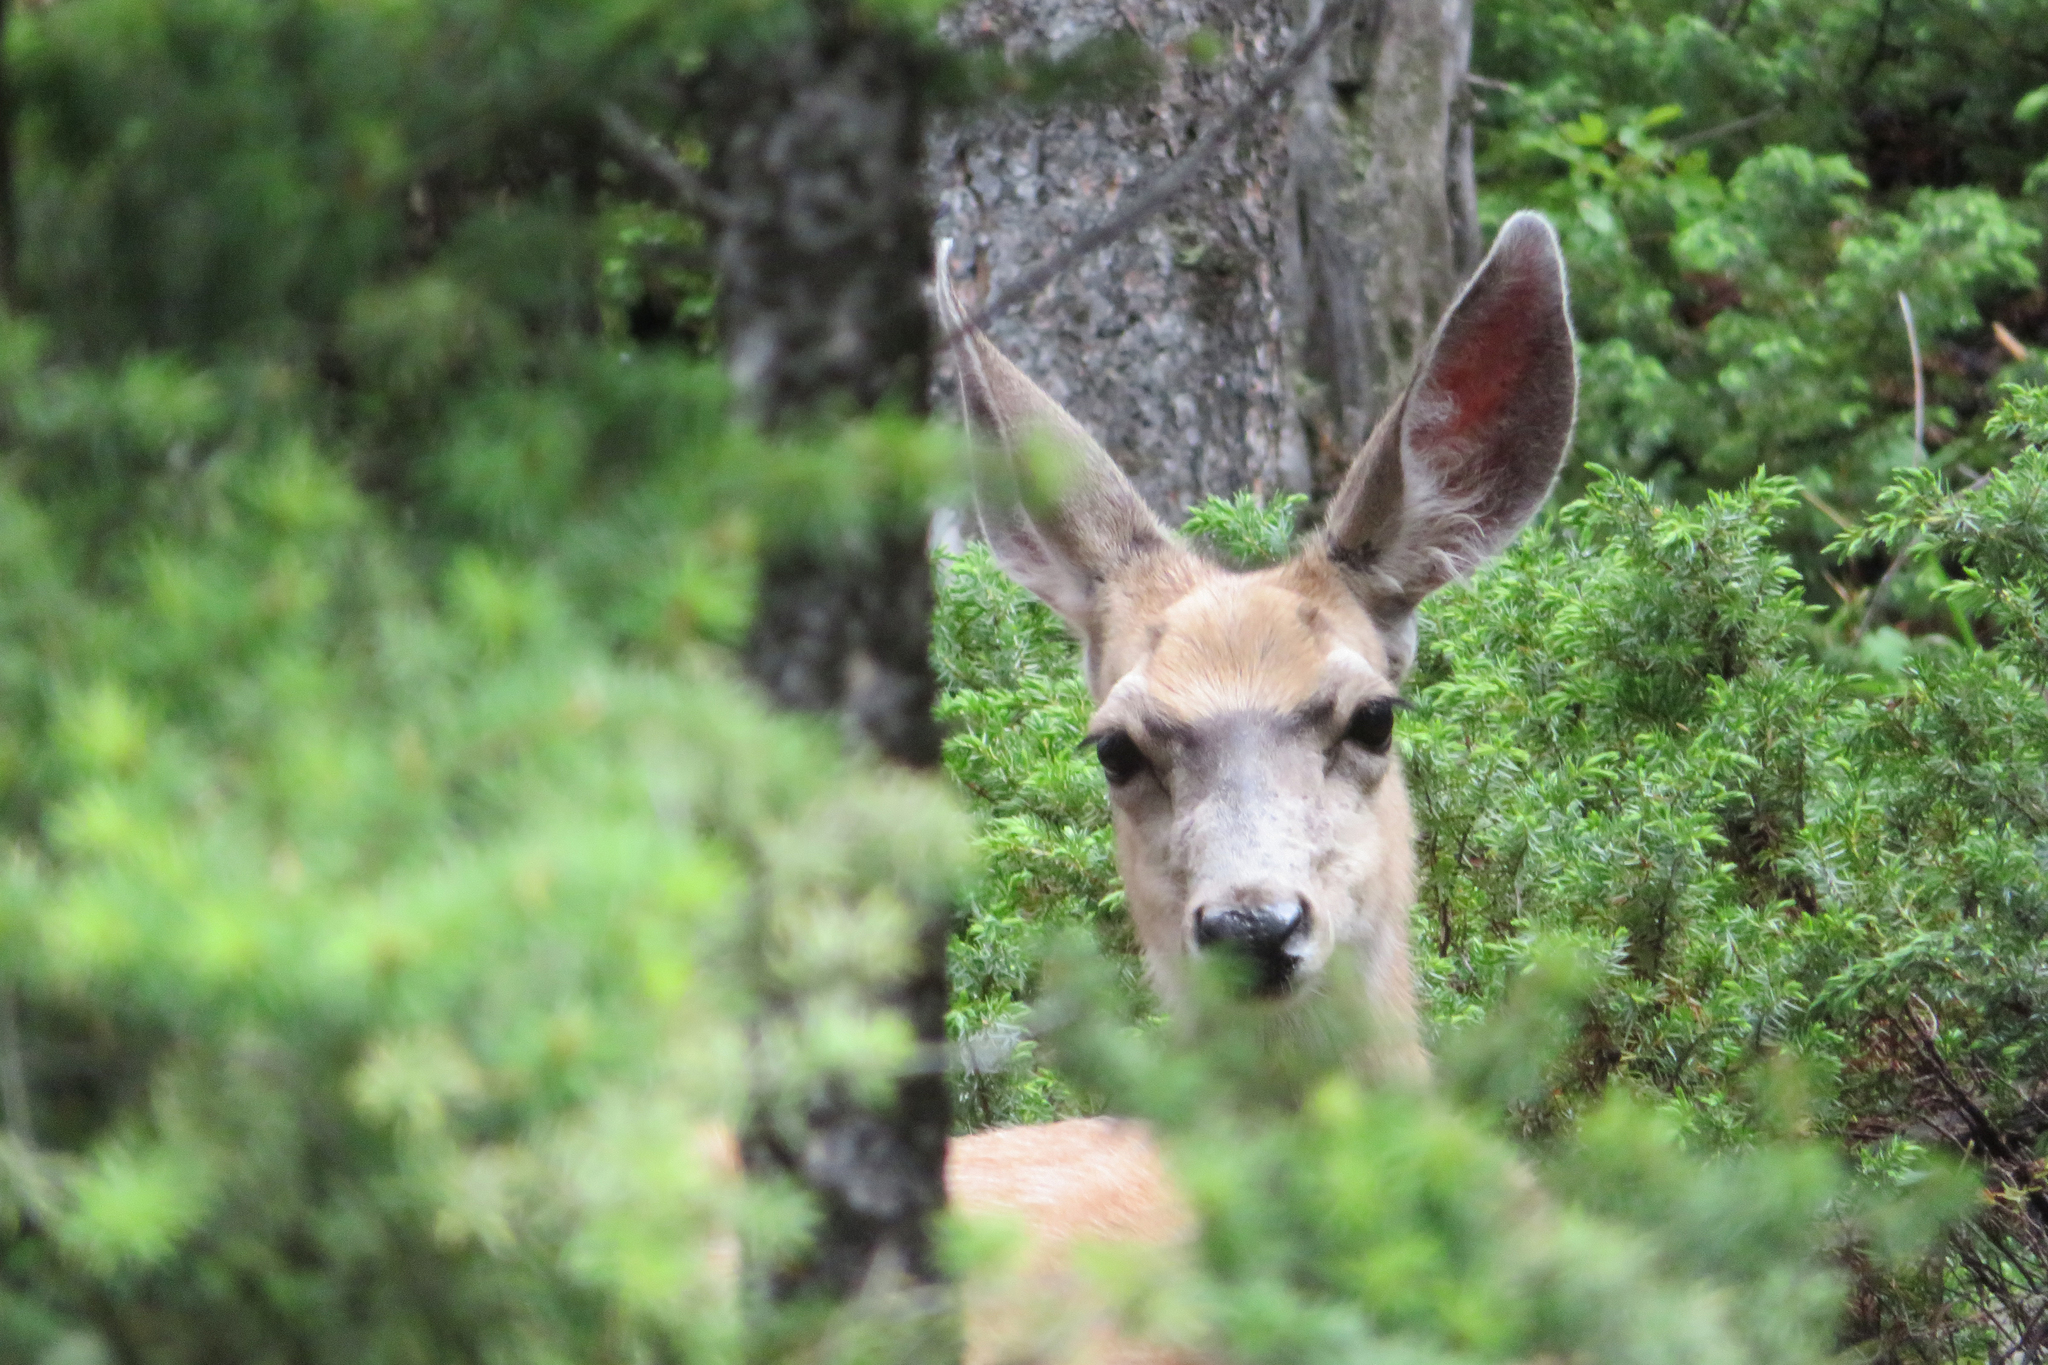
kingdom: Animalia
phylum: Chordata
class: Mammalia
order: Artiodactyla
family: Cervidae
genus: Odocoileus
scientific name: Odocoileus hemionus
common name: Mule deer
